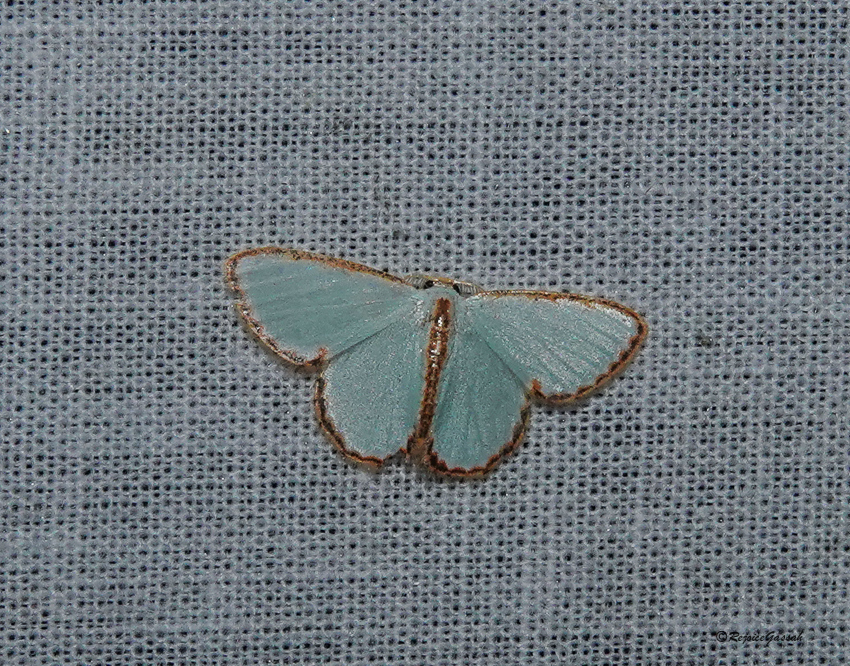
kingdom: Animalia
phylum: Arthropoda
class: Insecta
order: Lepidoptera
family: Geometridae
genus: Comostola
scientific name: Comostola pyrrhogona
